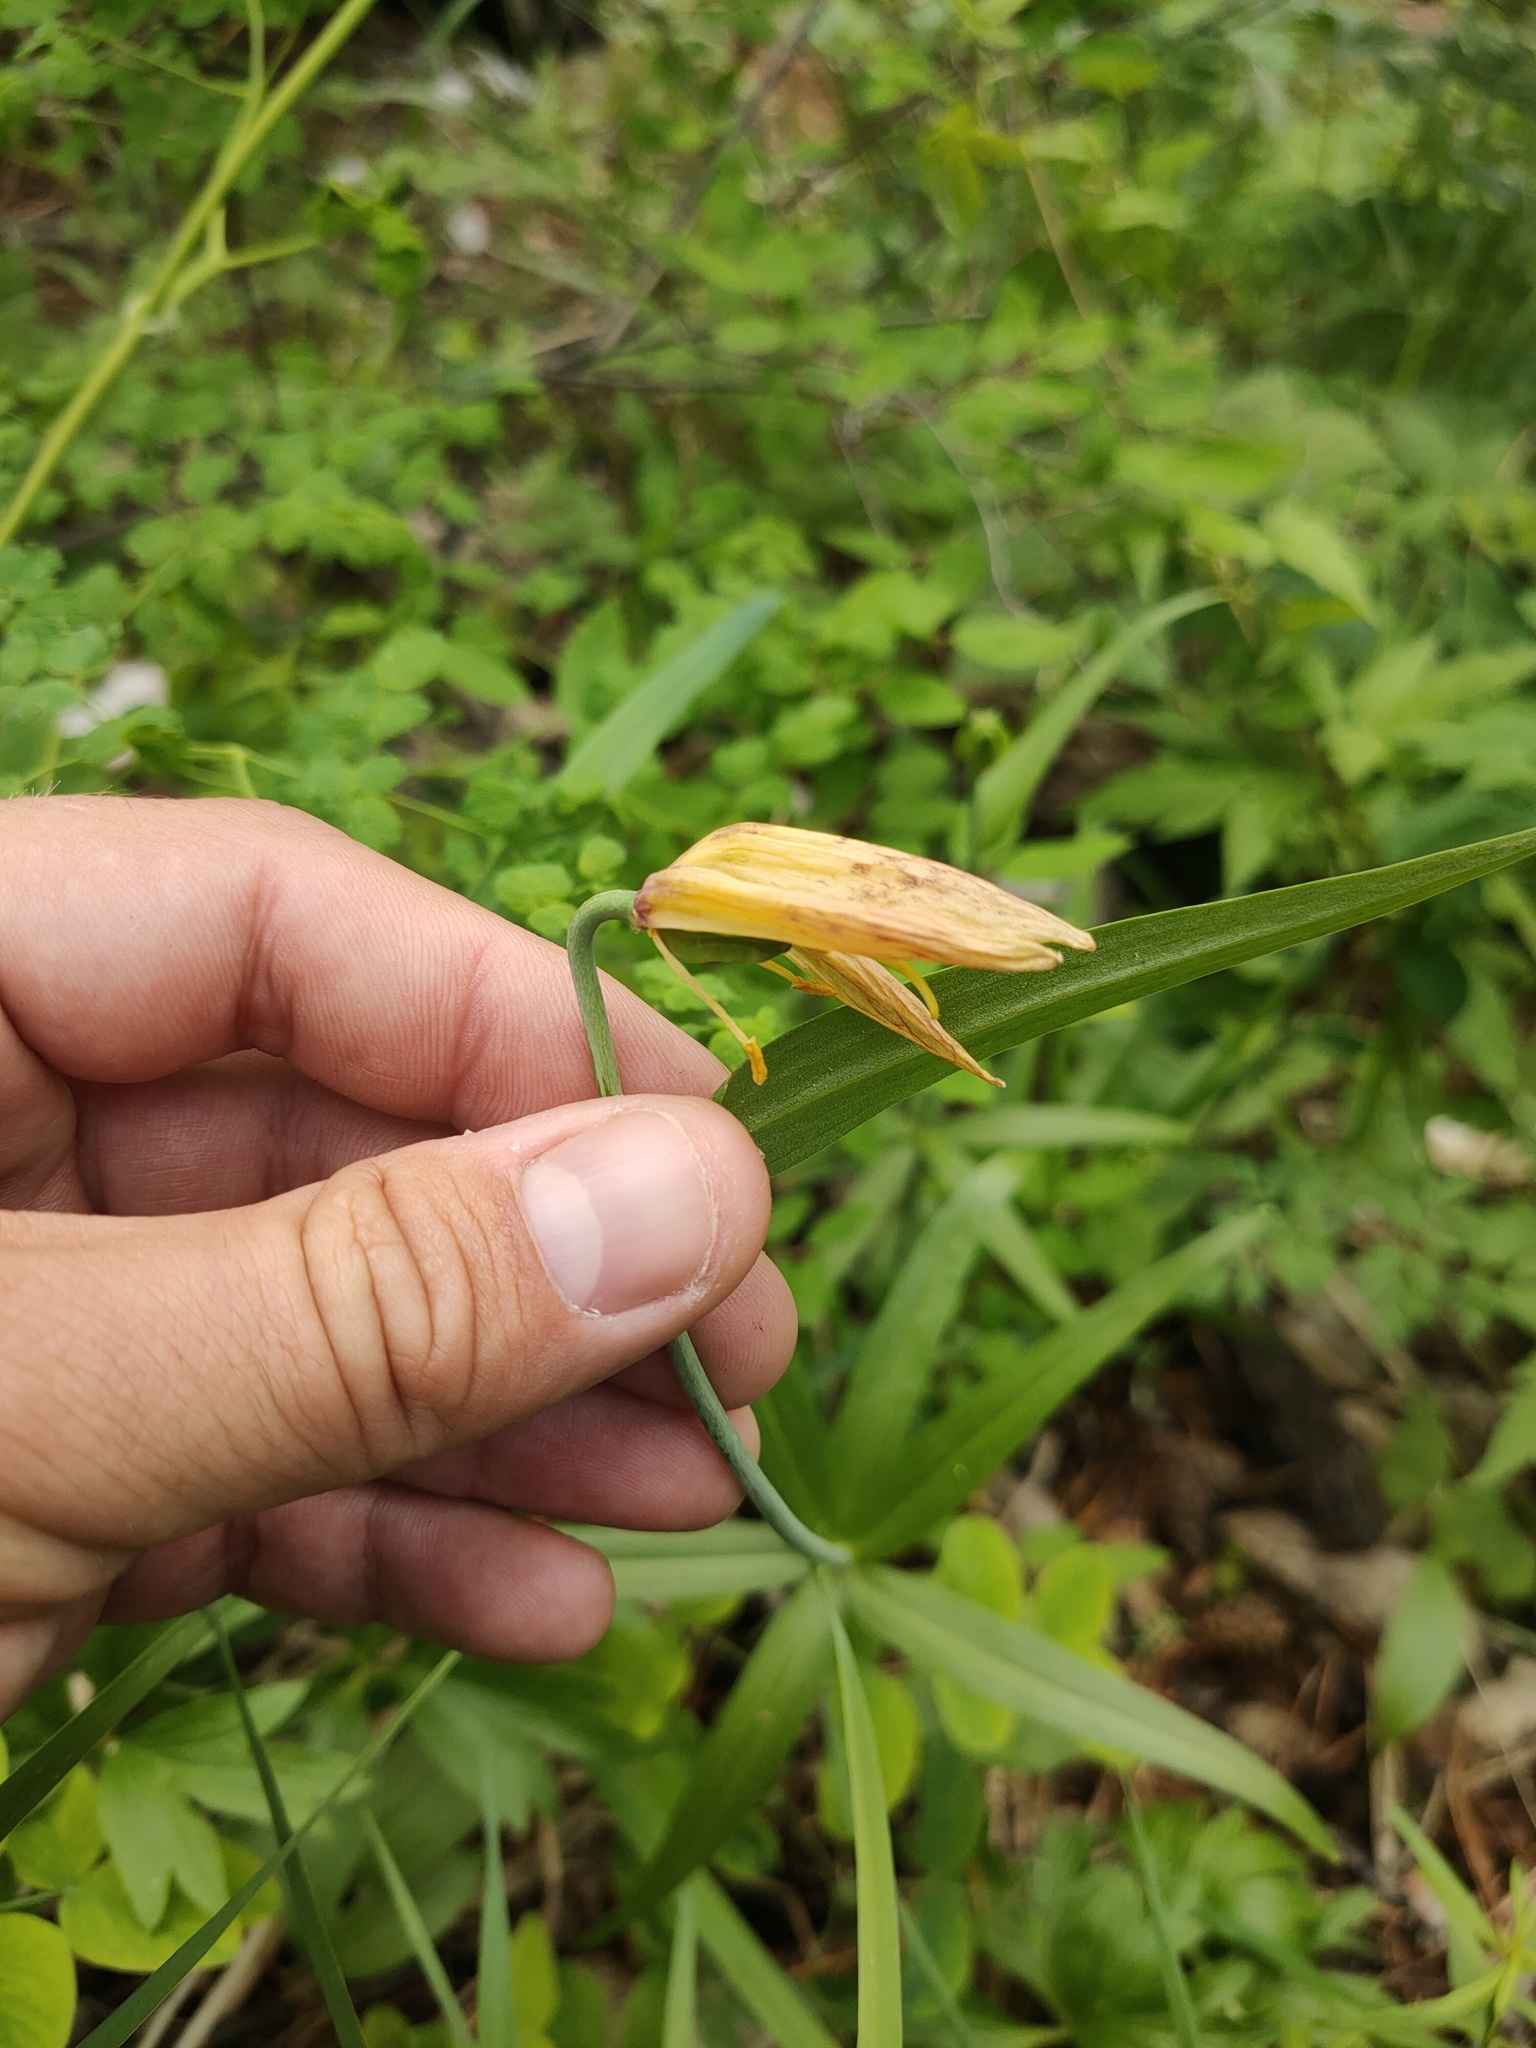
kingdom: Plantae
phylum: Tracheophyta
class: Liliopsida
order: Liliales
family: Liliaceae
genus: Fritillaria
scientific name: Fritillaria dagana
